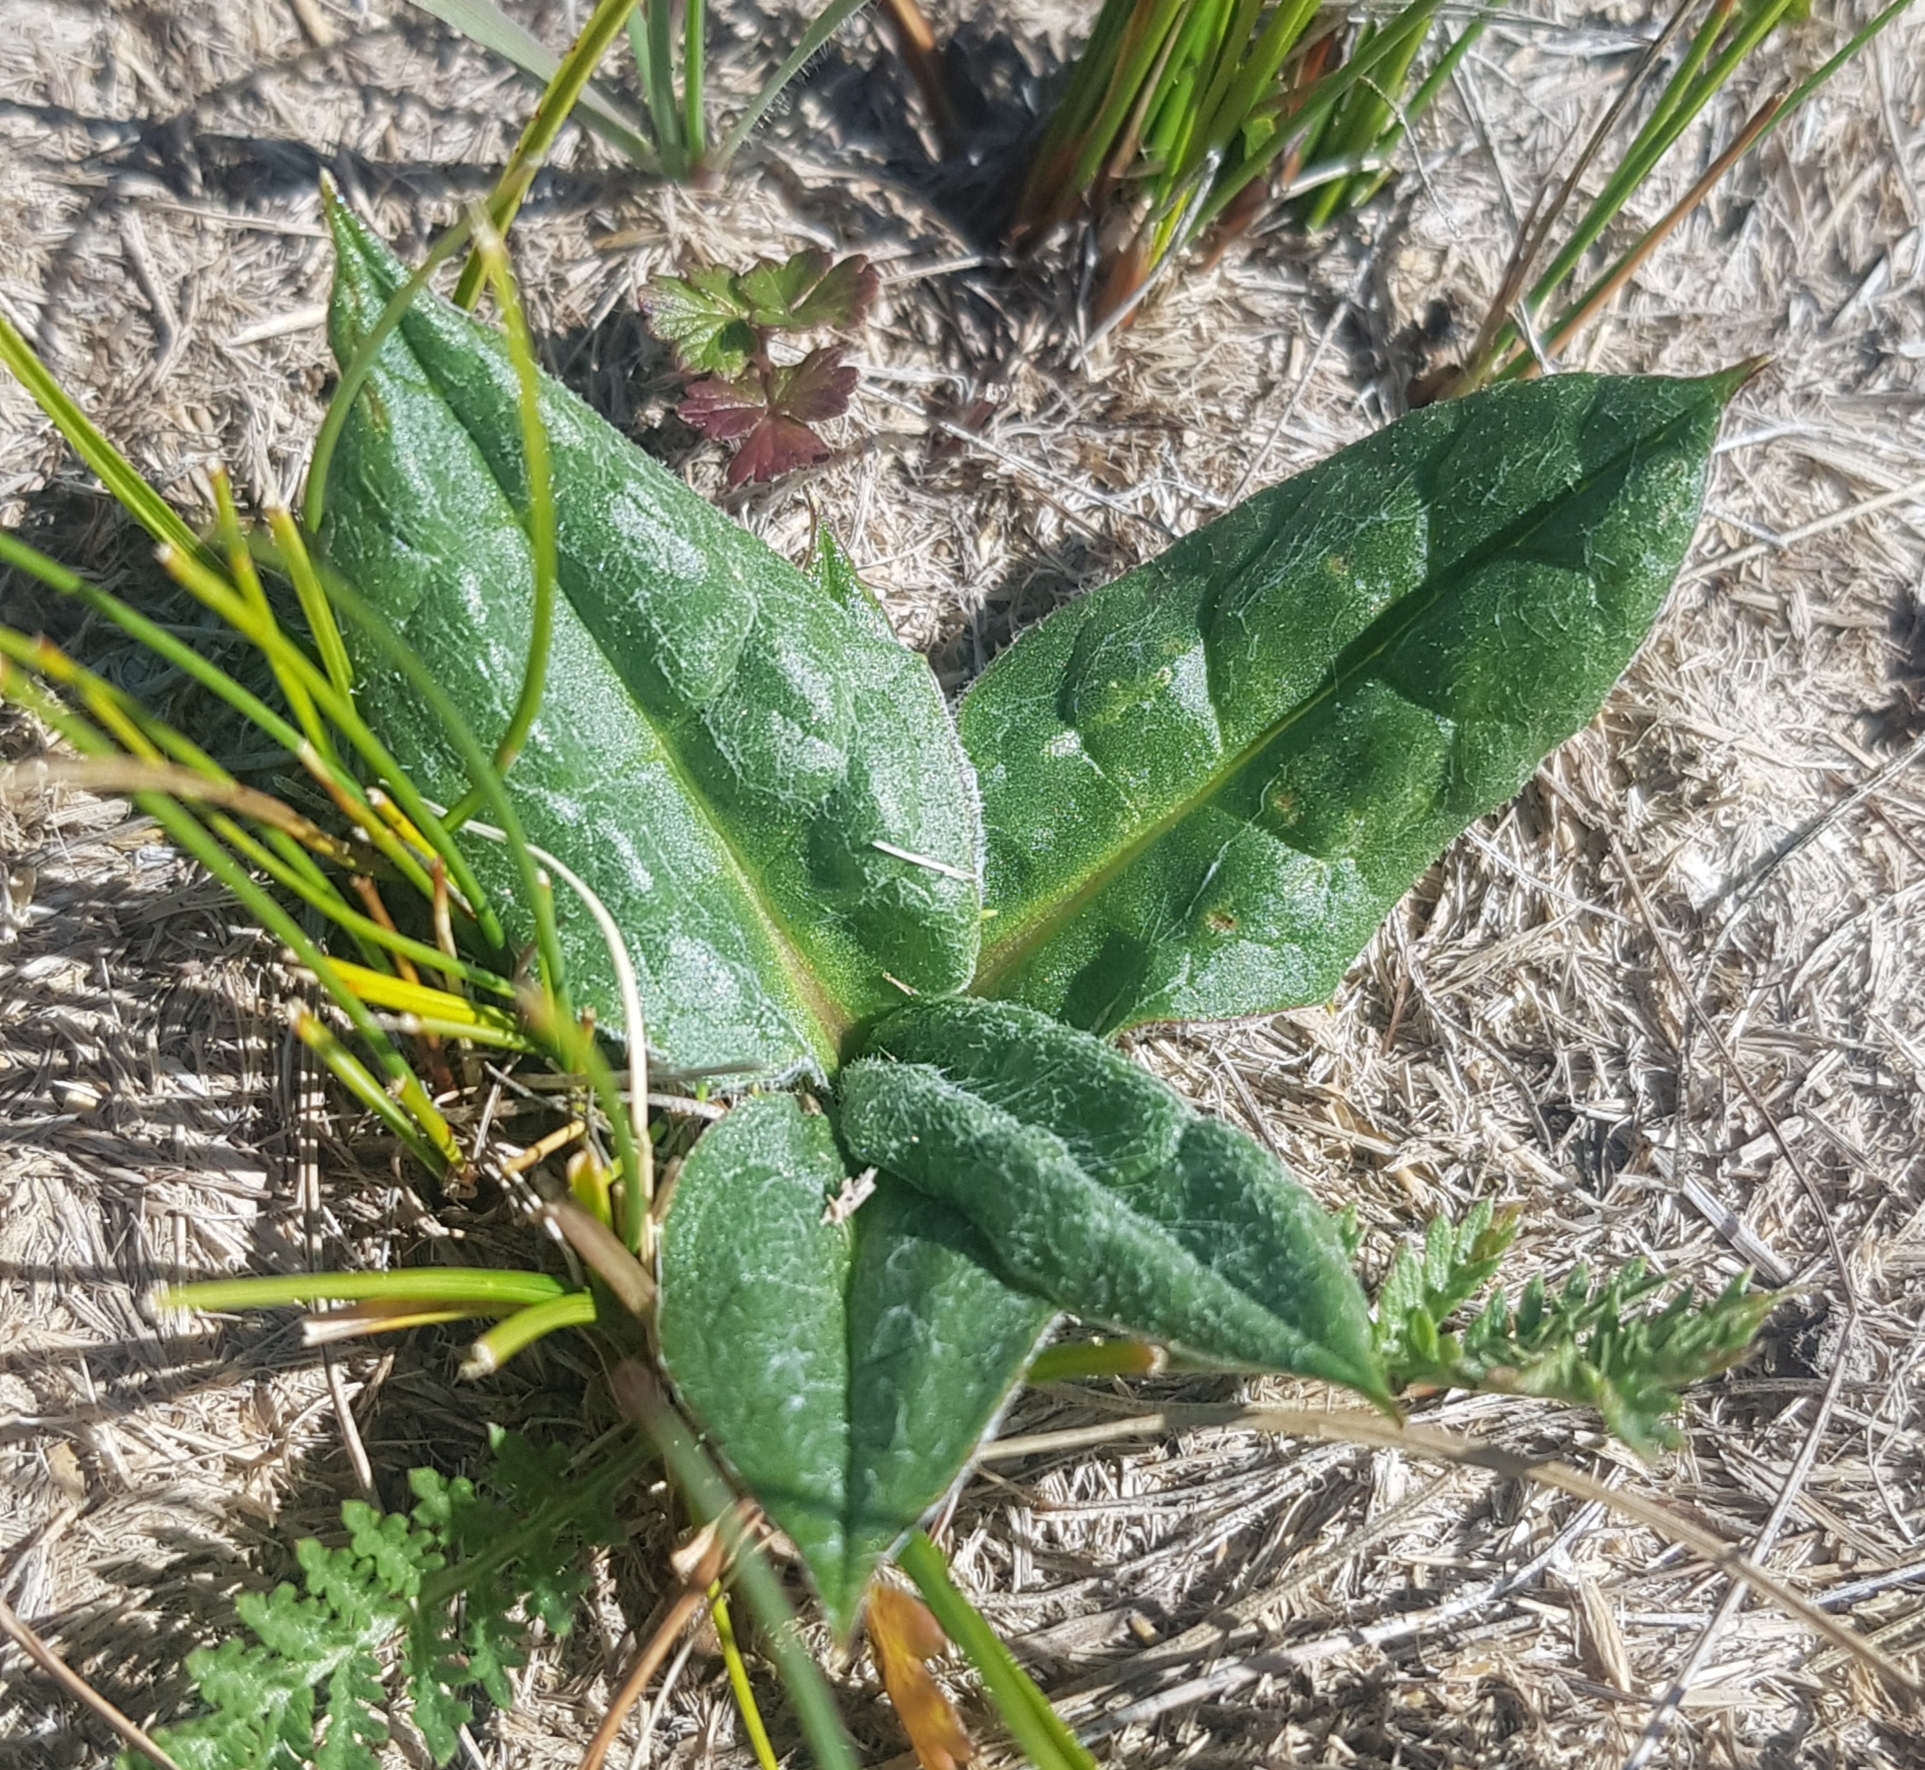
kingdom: Plantae
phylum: Tracheophyta
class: Magnoliopsida
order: Asterales
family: Asteraceae
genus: Saussurea
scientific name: Saussurea alpina
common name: Alpine saw-wort
